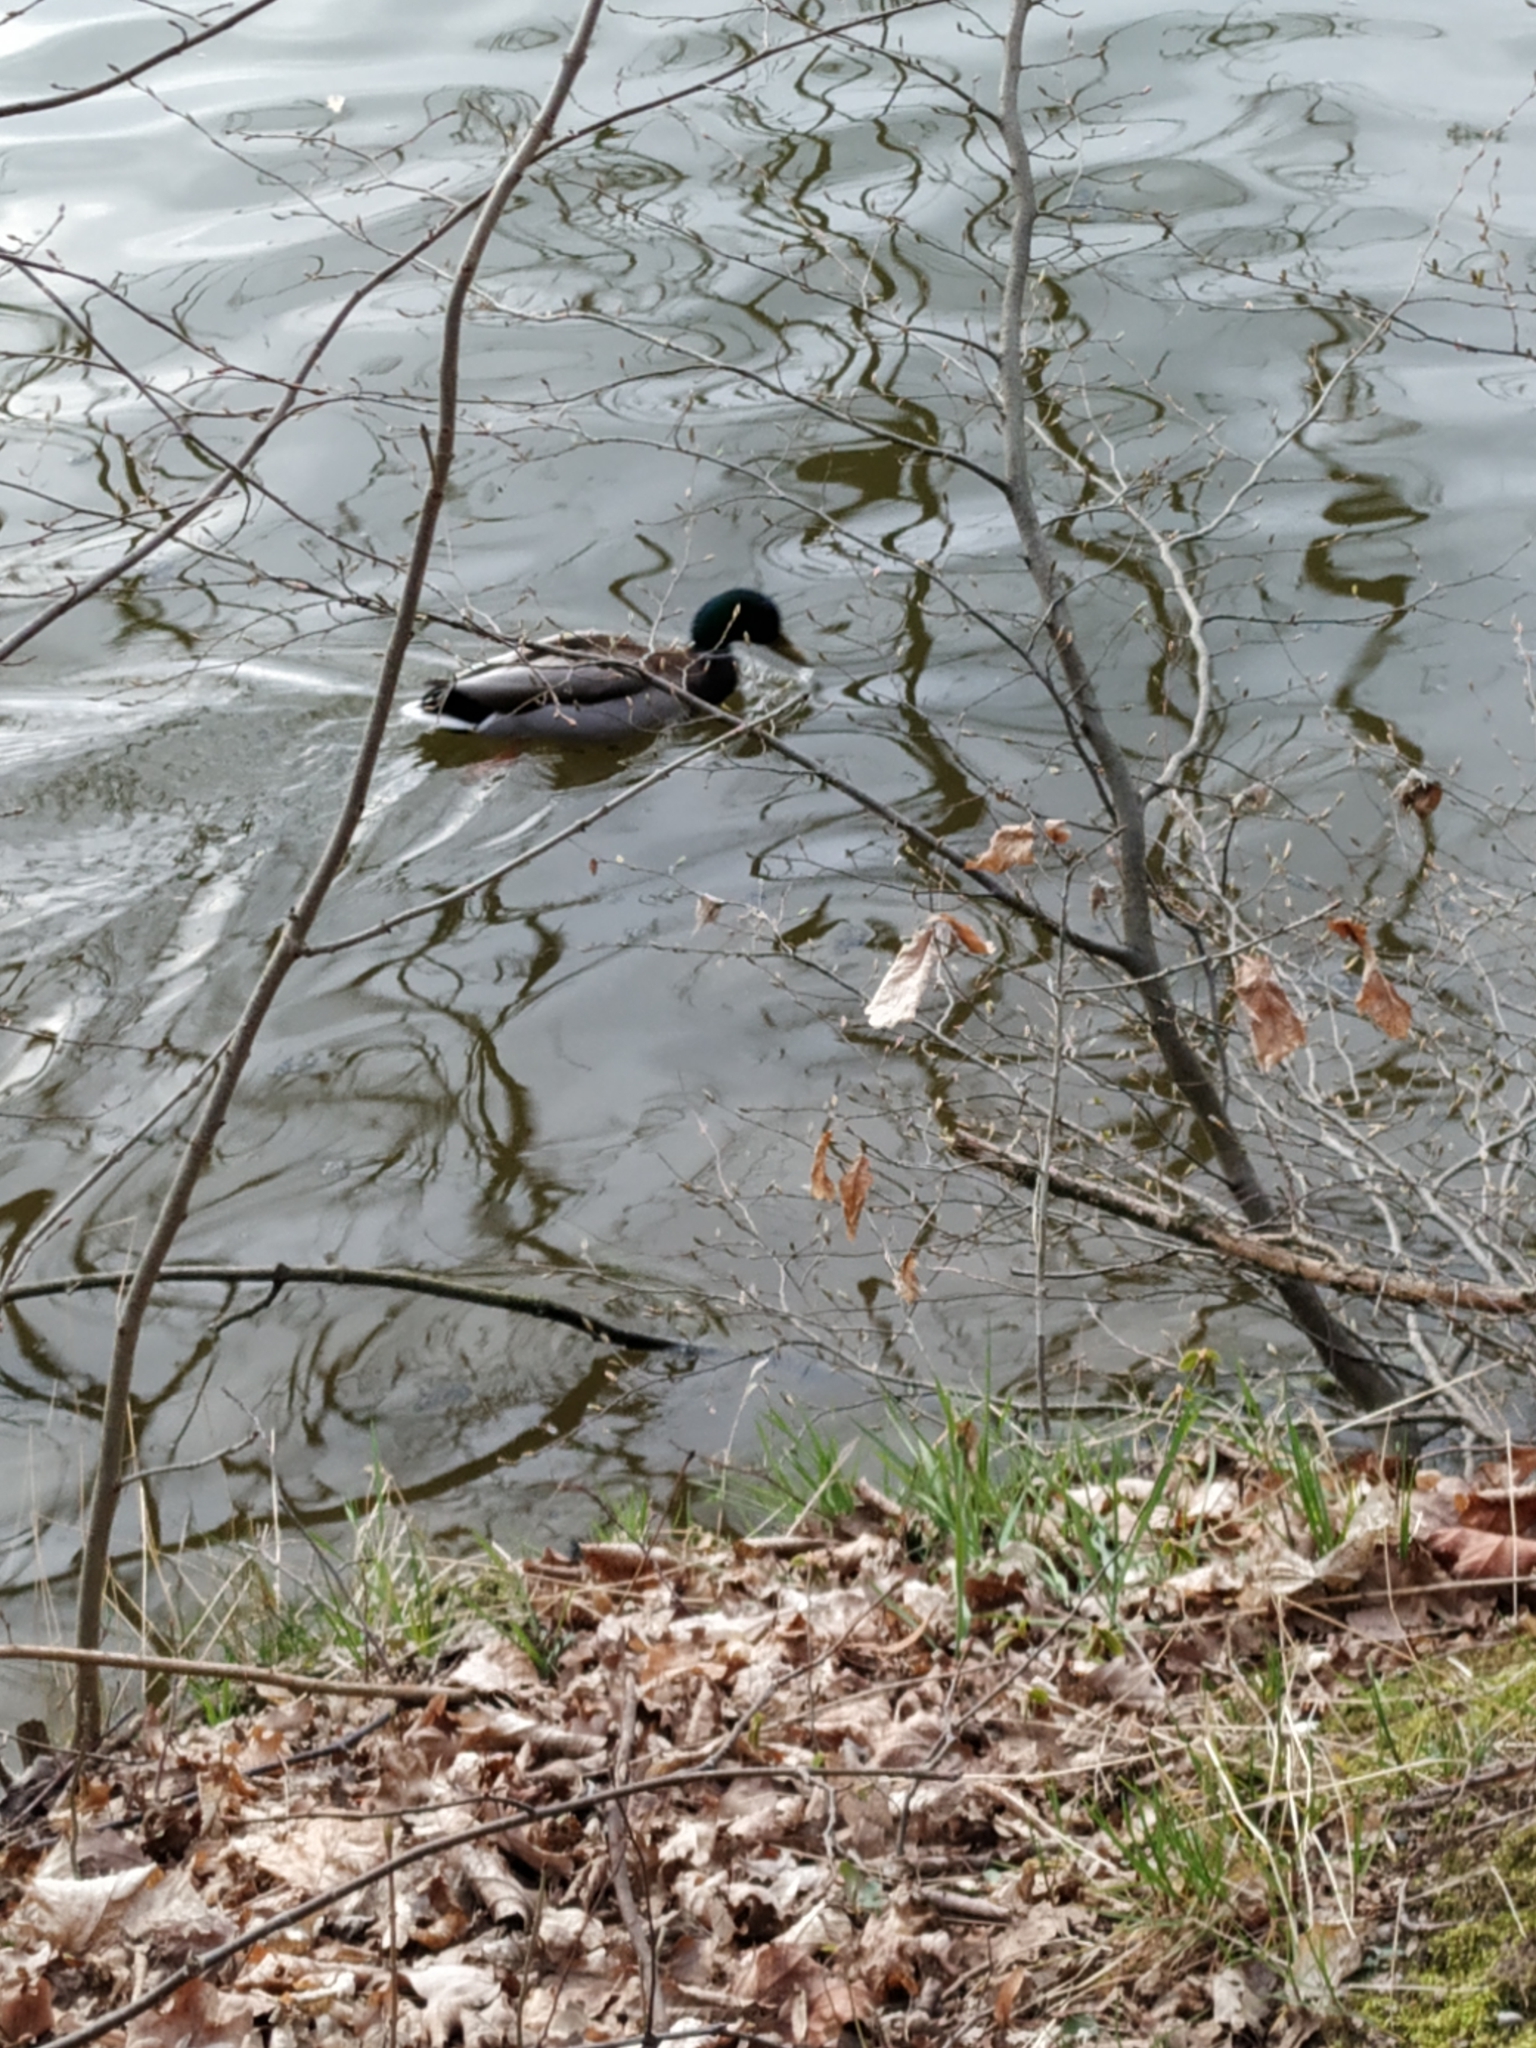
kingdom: Animalia
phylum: Chordata
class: Aves
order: Anseriformes
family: Anatidae
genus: Anas
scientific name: Anas platyrhynchos
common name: Mallard
